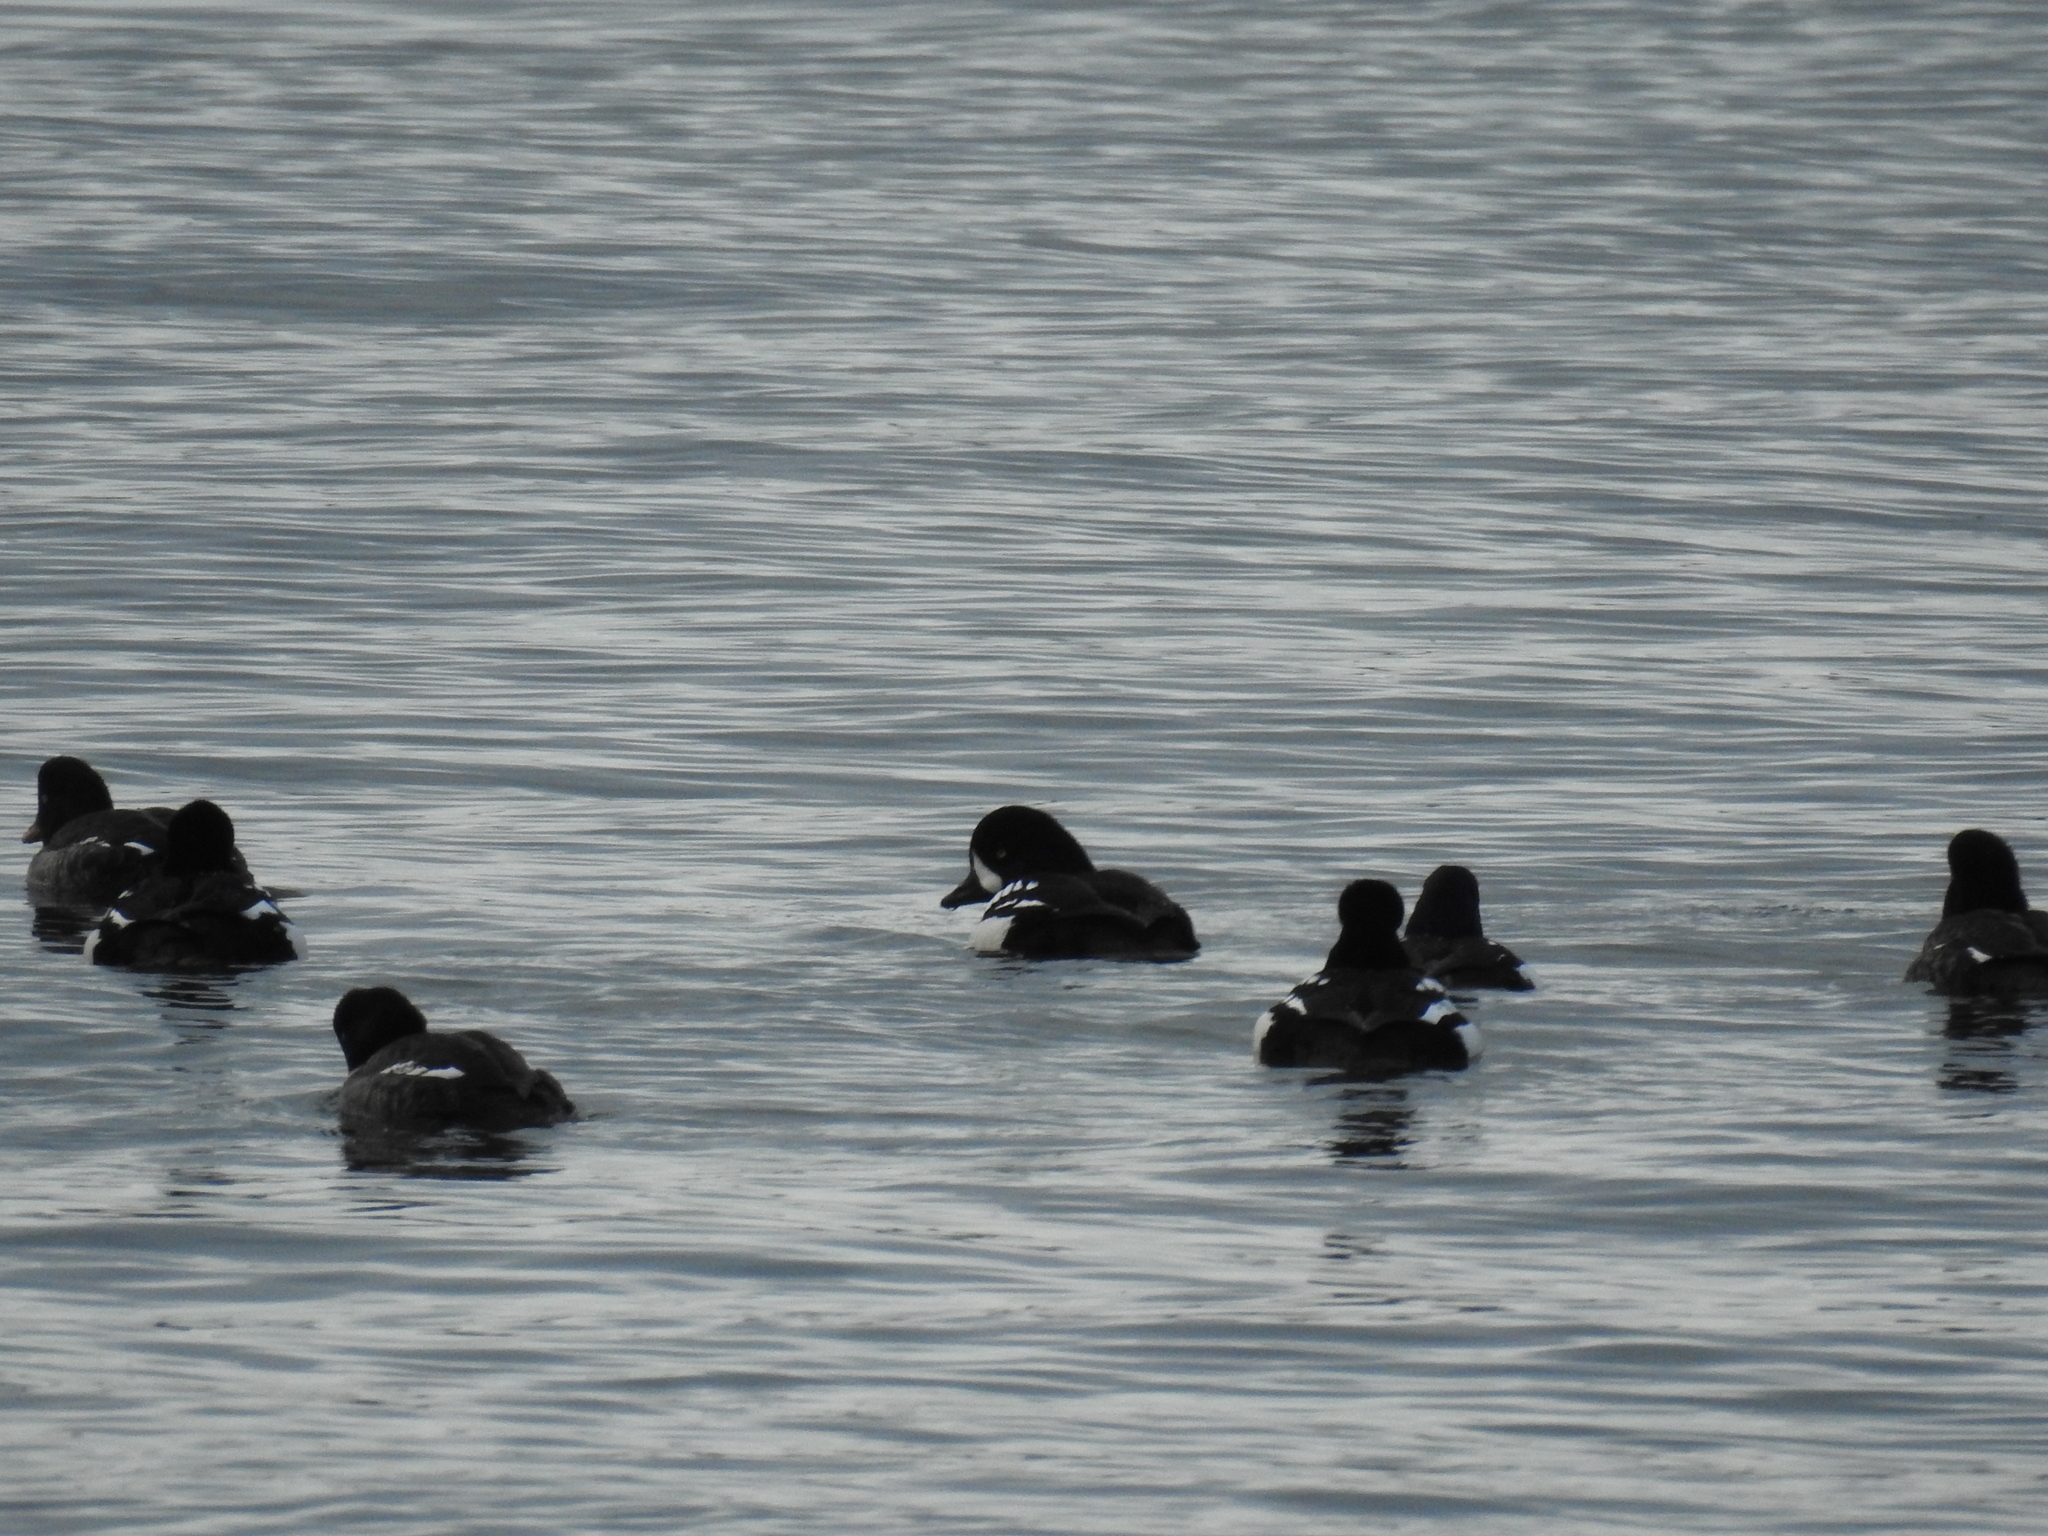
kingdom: Animalia
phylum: Chordata
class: Aves
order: Anseriformes
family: Anatidae
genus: Bucephala
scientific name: Bucephala islandica
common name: Barrow's goldeneye
